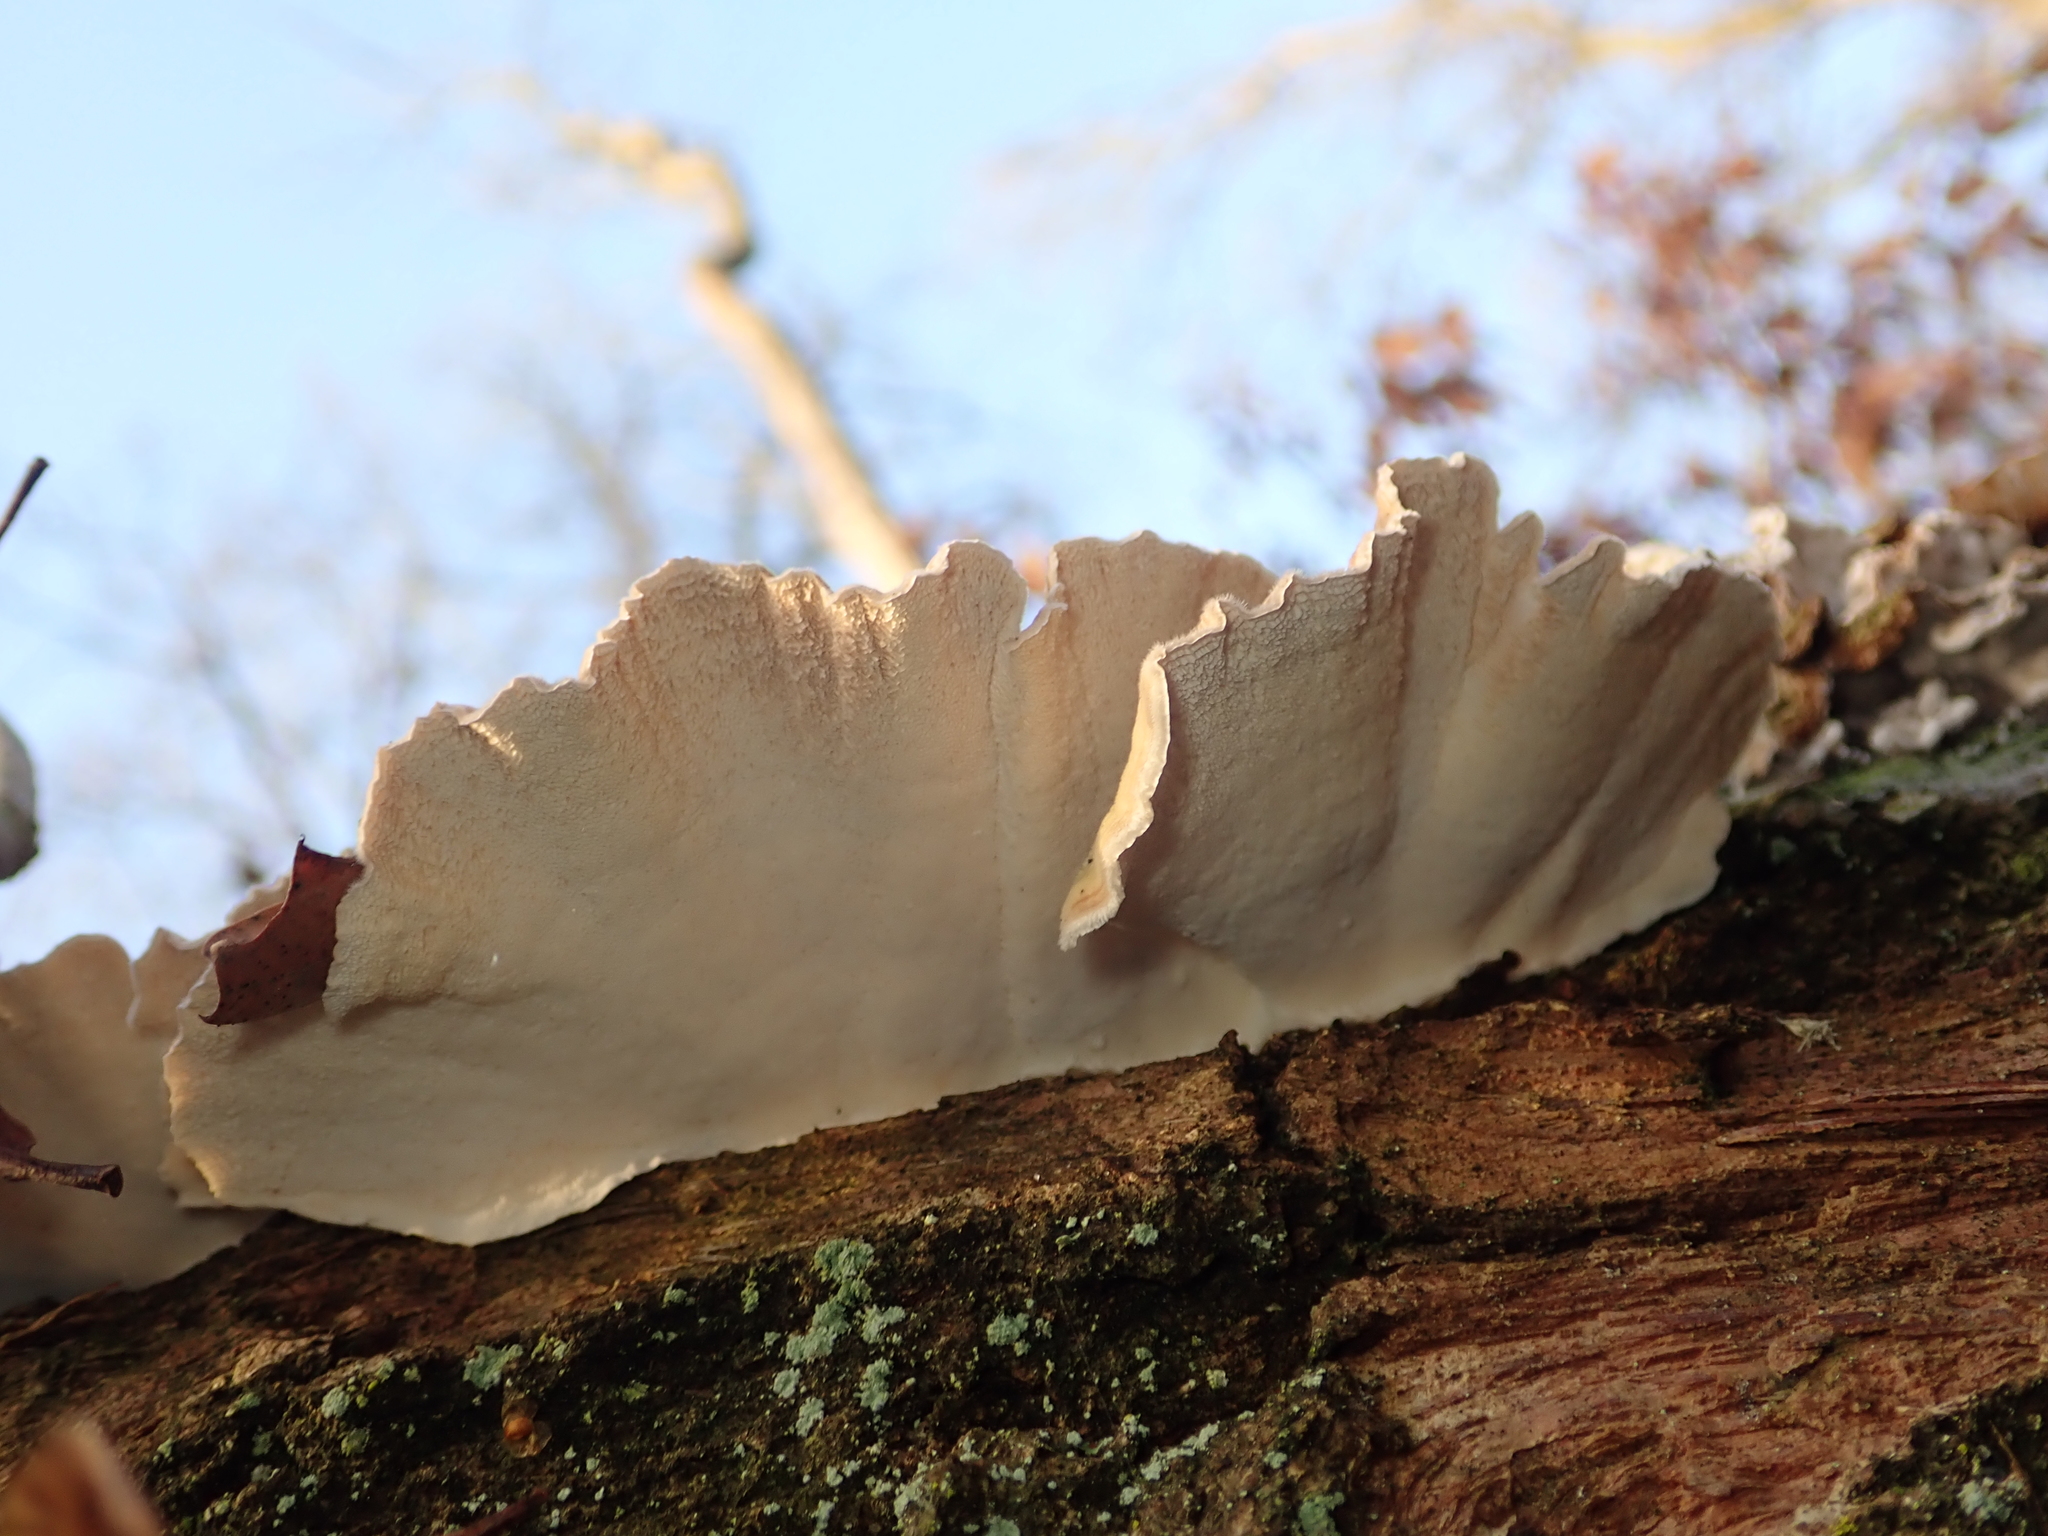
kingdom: Fungi
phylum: Basidiomycota
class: Agaricomycetes
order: Polyporales
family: Polyporaceae
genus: Trametes
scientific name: Trametes versicolor
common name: Turkeytail
